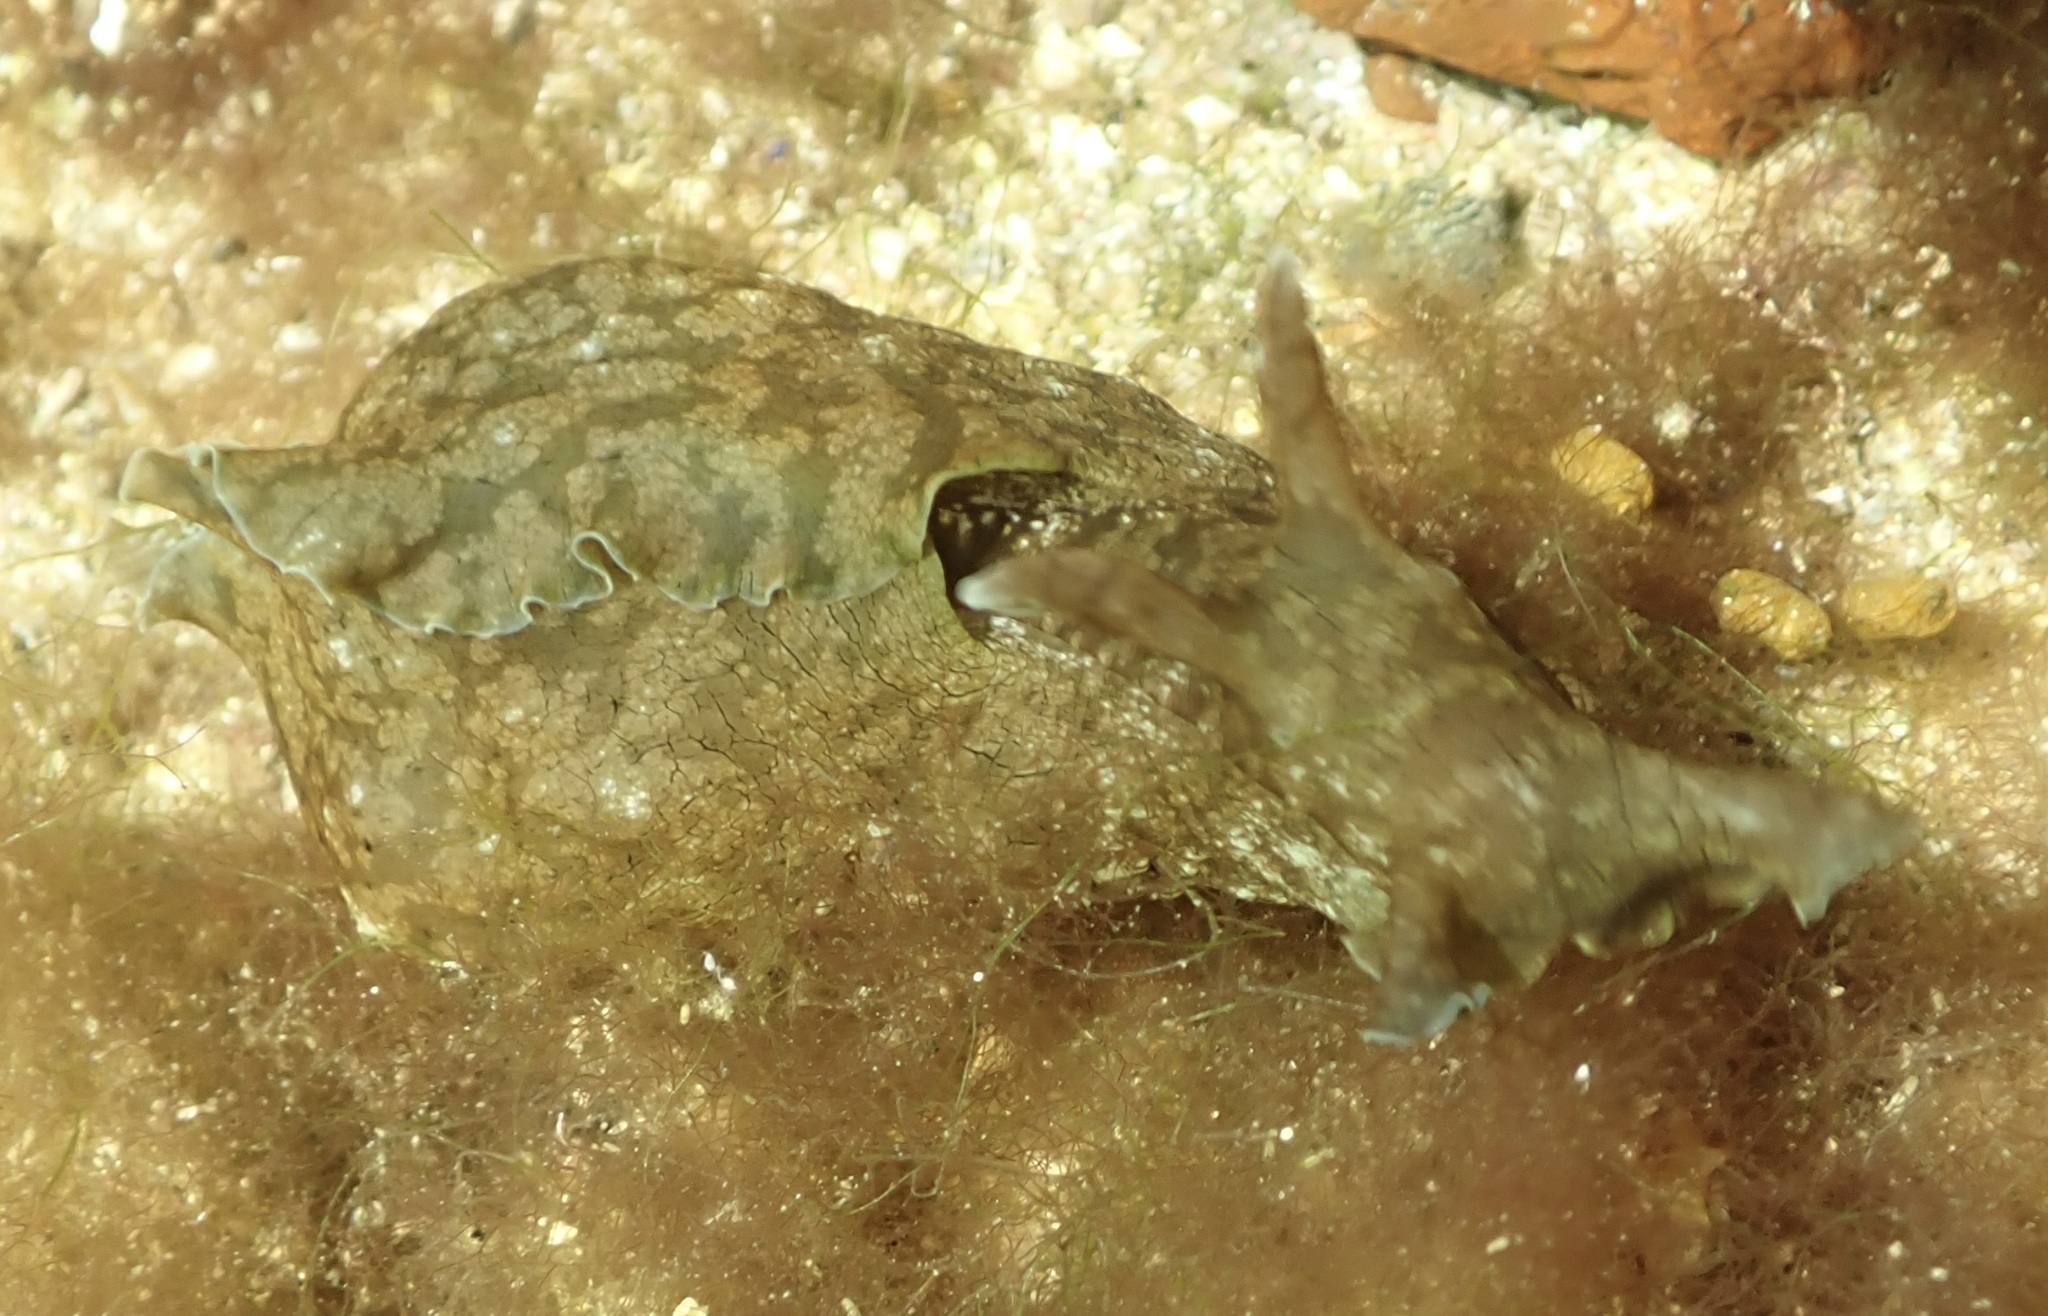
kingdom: Animalia
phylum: Mollusca
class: Gastropoda
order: Aplysiida
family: Aplysiidae
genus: Aplysia
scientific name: Aplysia sydneyensis
